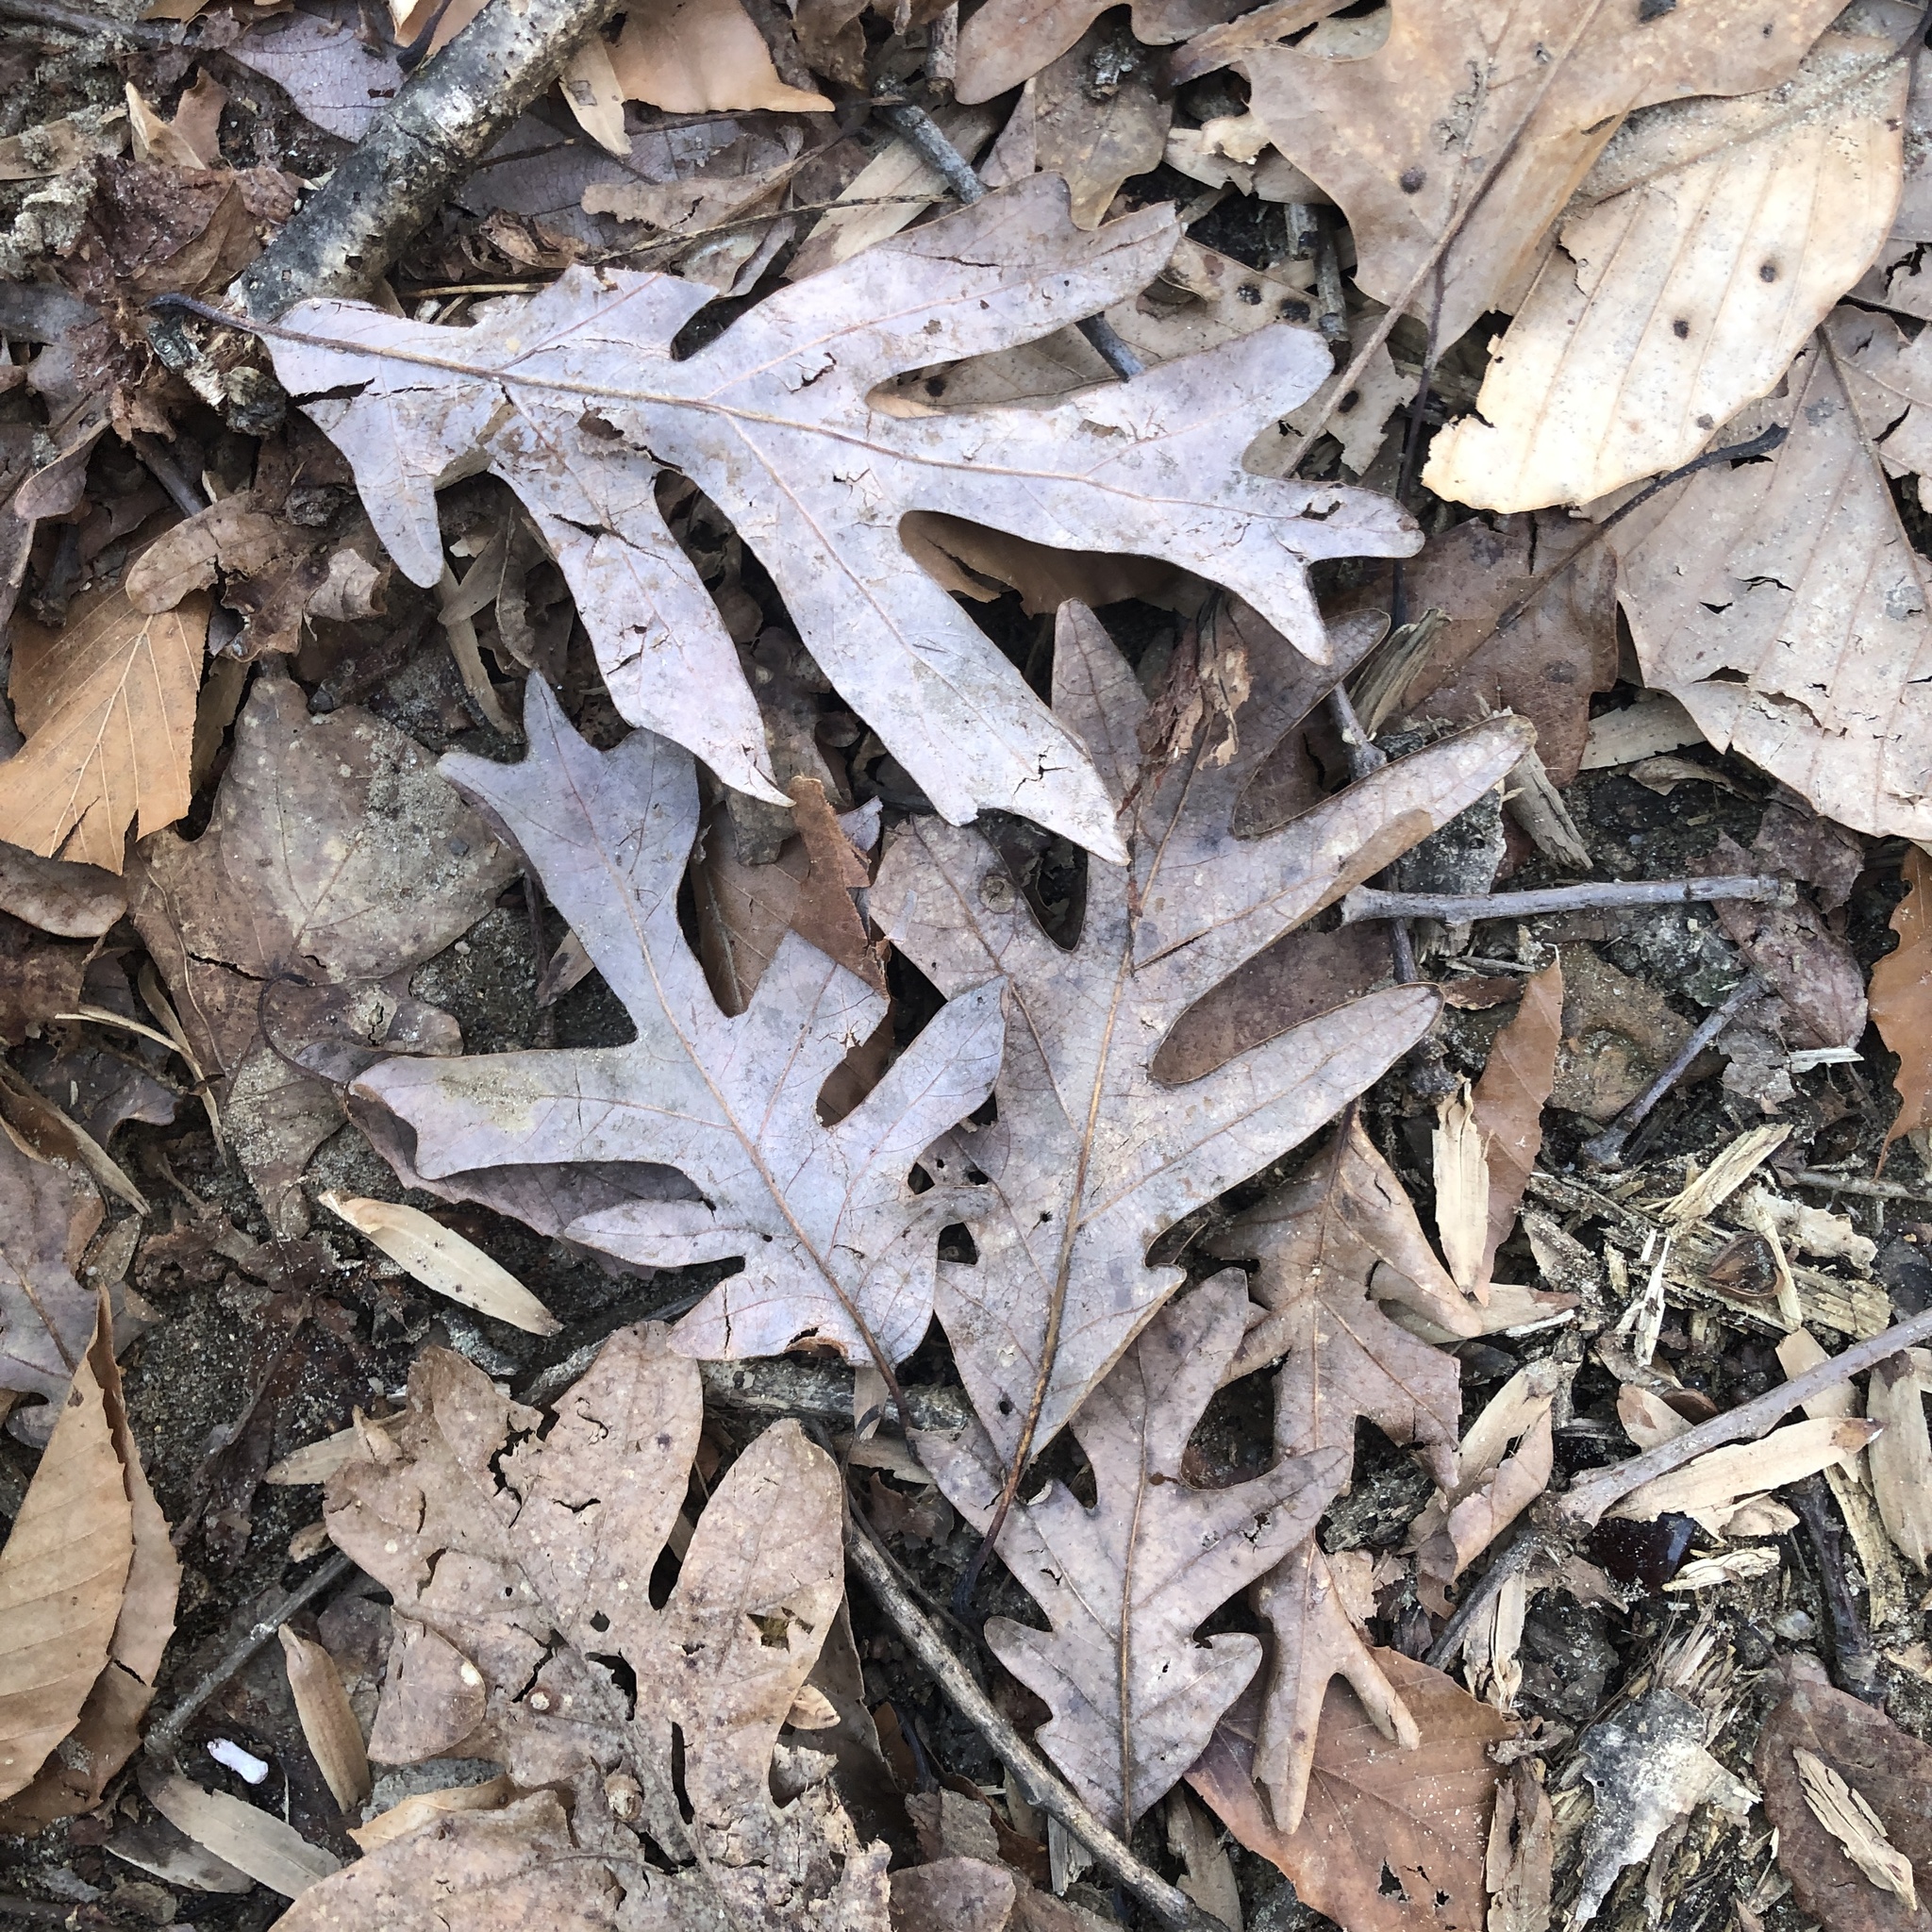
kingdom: Plantae
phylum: Tracheophyta
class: Magnoliopsida
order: Fagales
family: Fagaceae
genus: Quercus
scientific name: Quercus alba
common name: White oak
